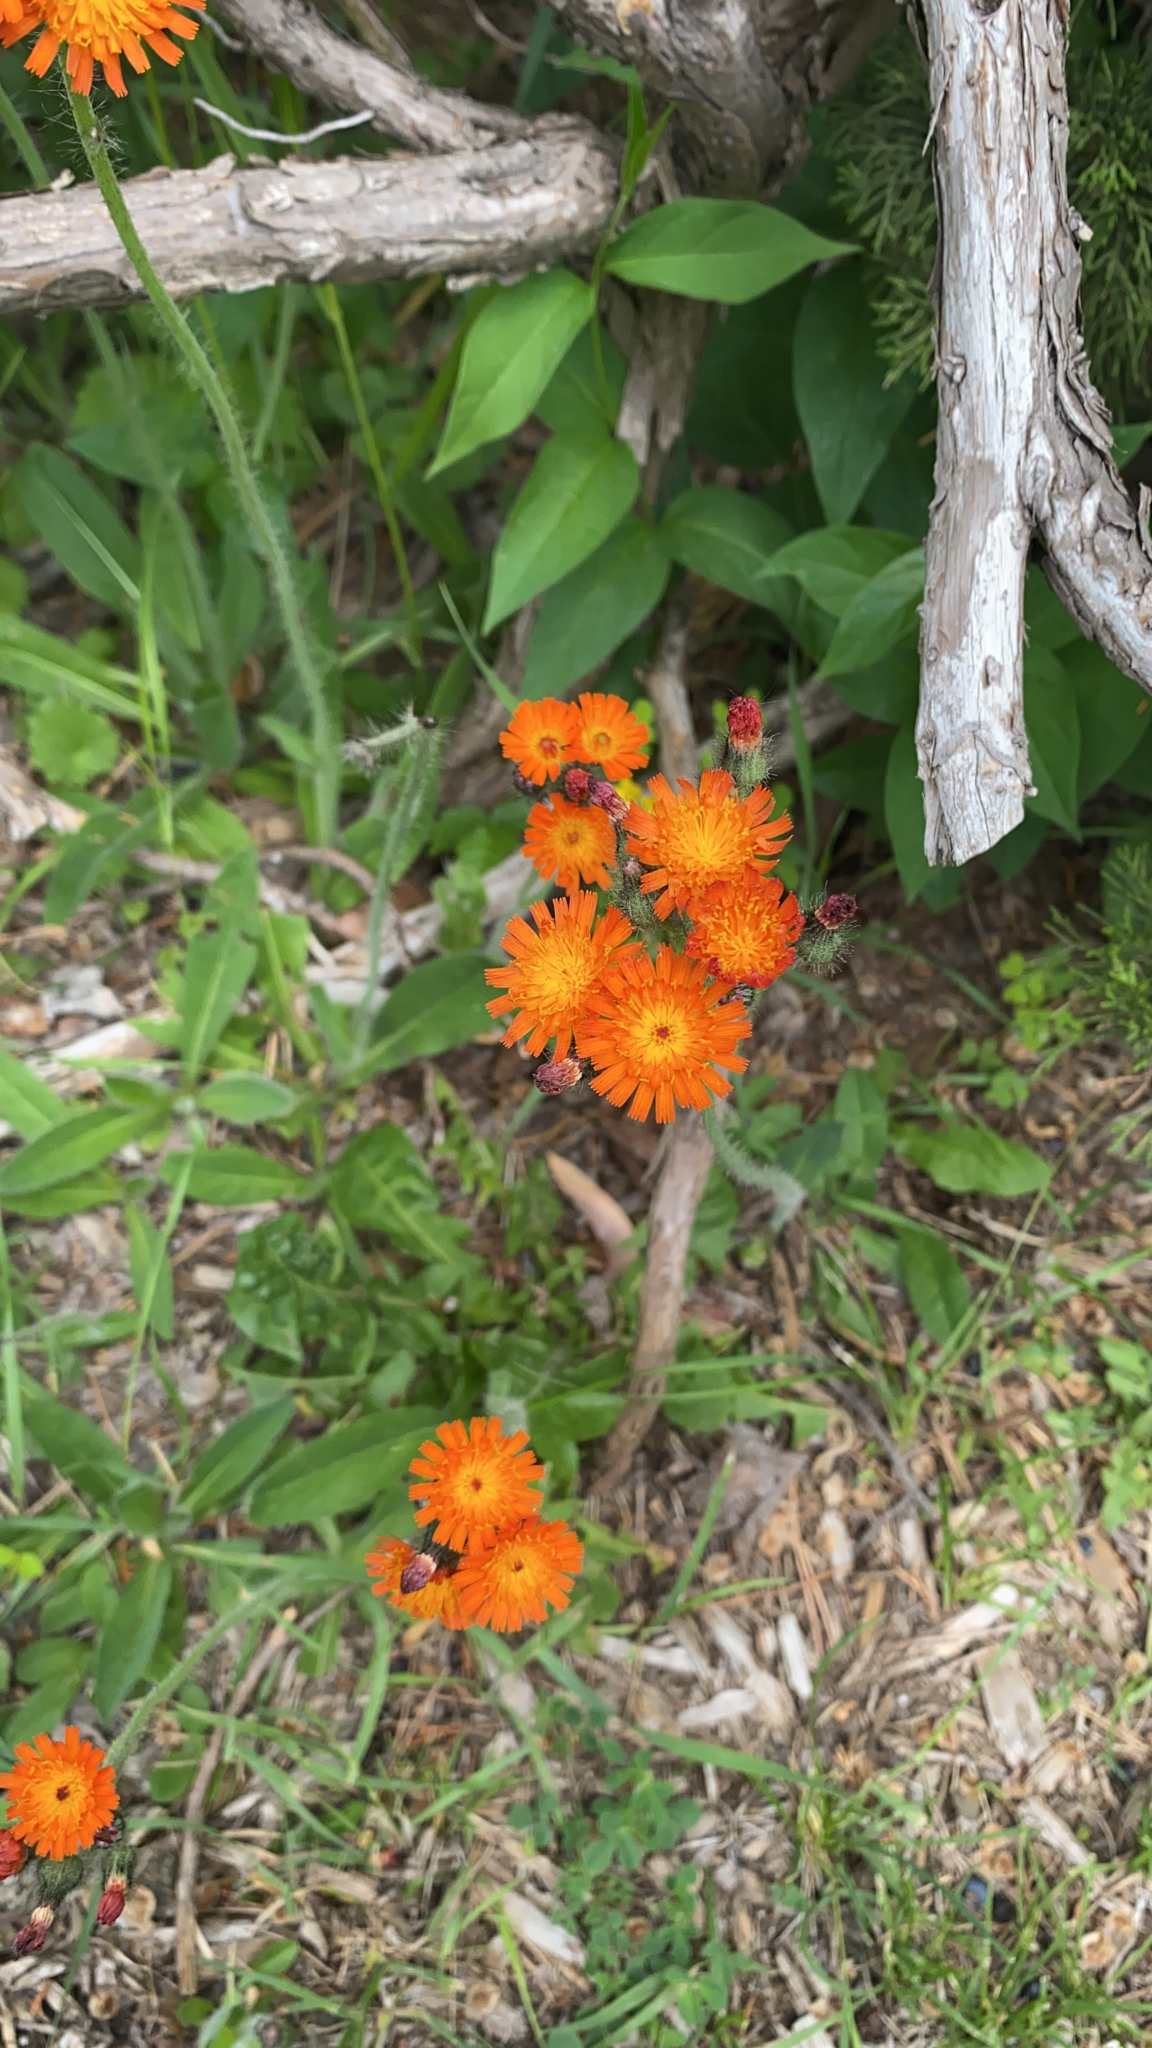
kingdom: Plantae
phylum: Tracheophyta
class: Magnoliopsida
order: Asterales
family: Asteraceae
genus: Pilosella
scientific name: Pilosella aurantiaca
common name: Fox-and-cubs
